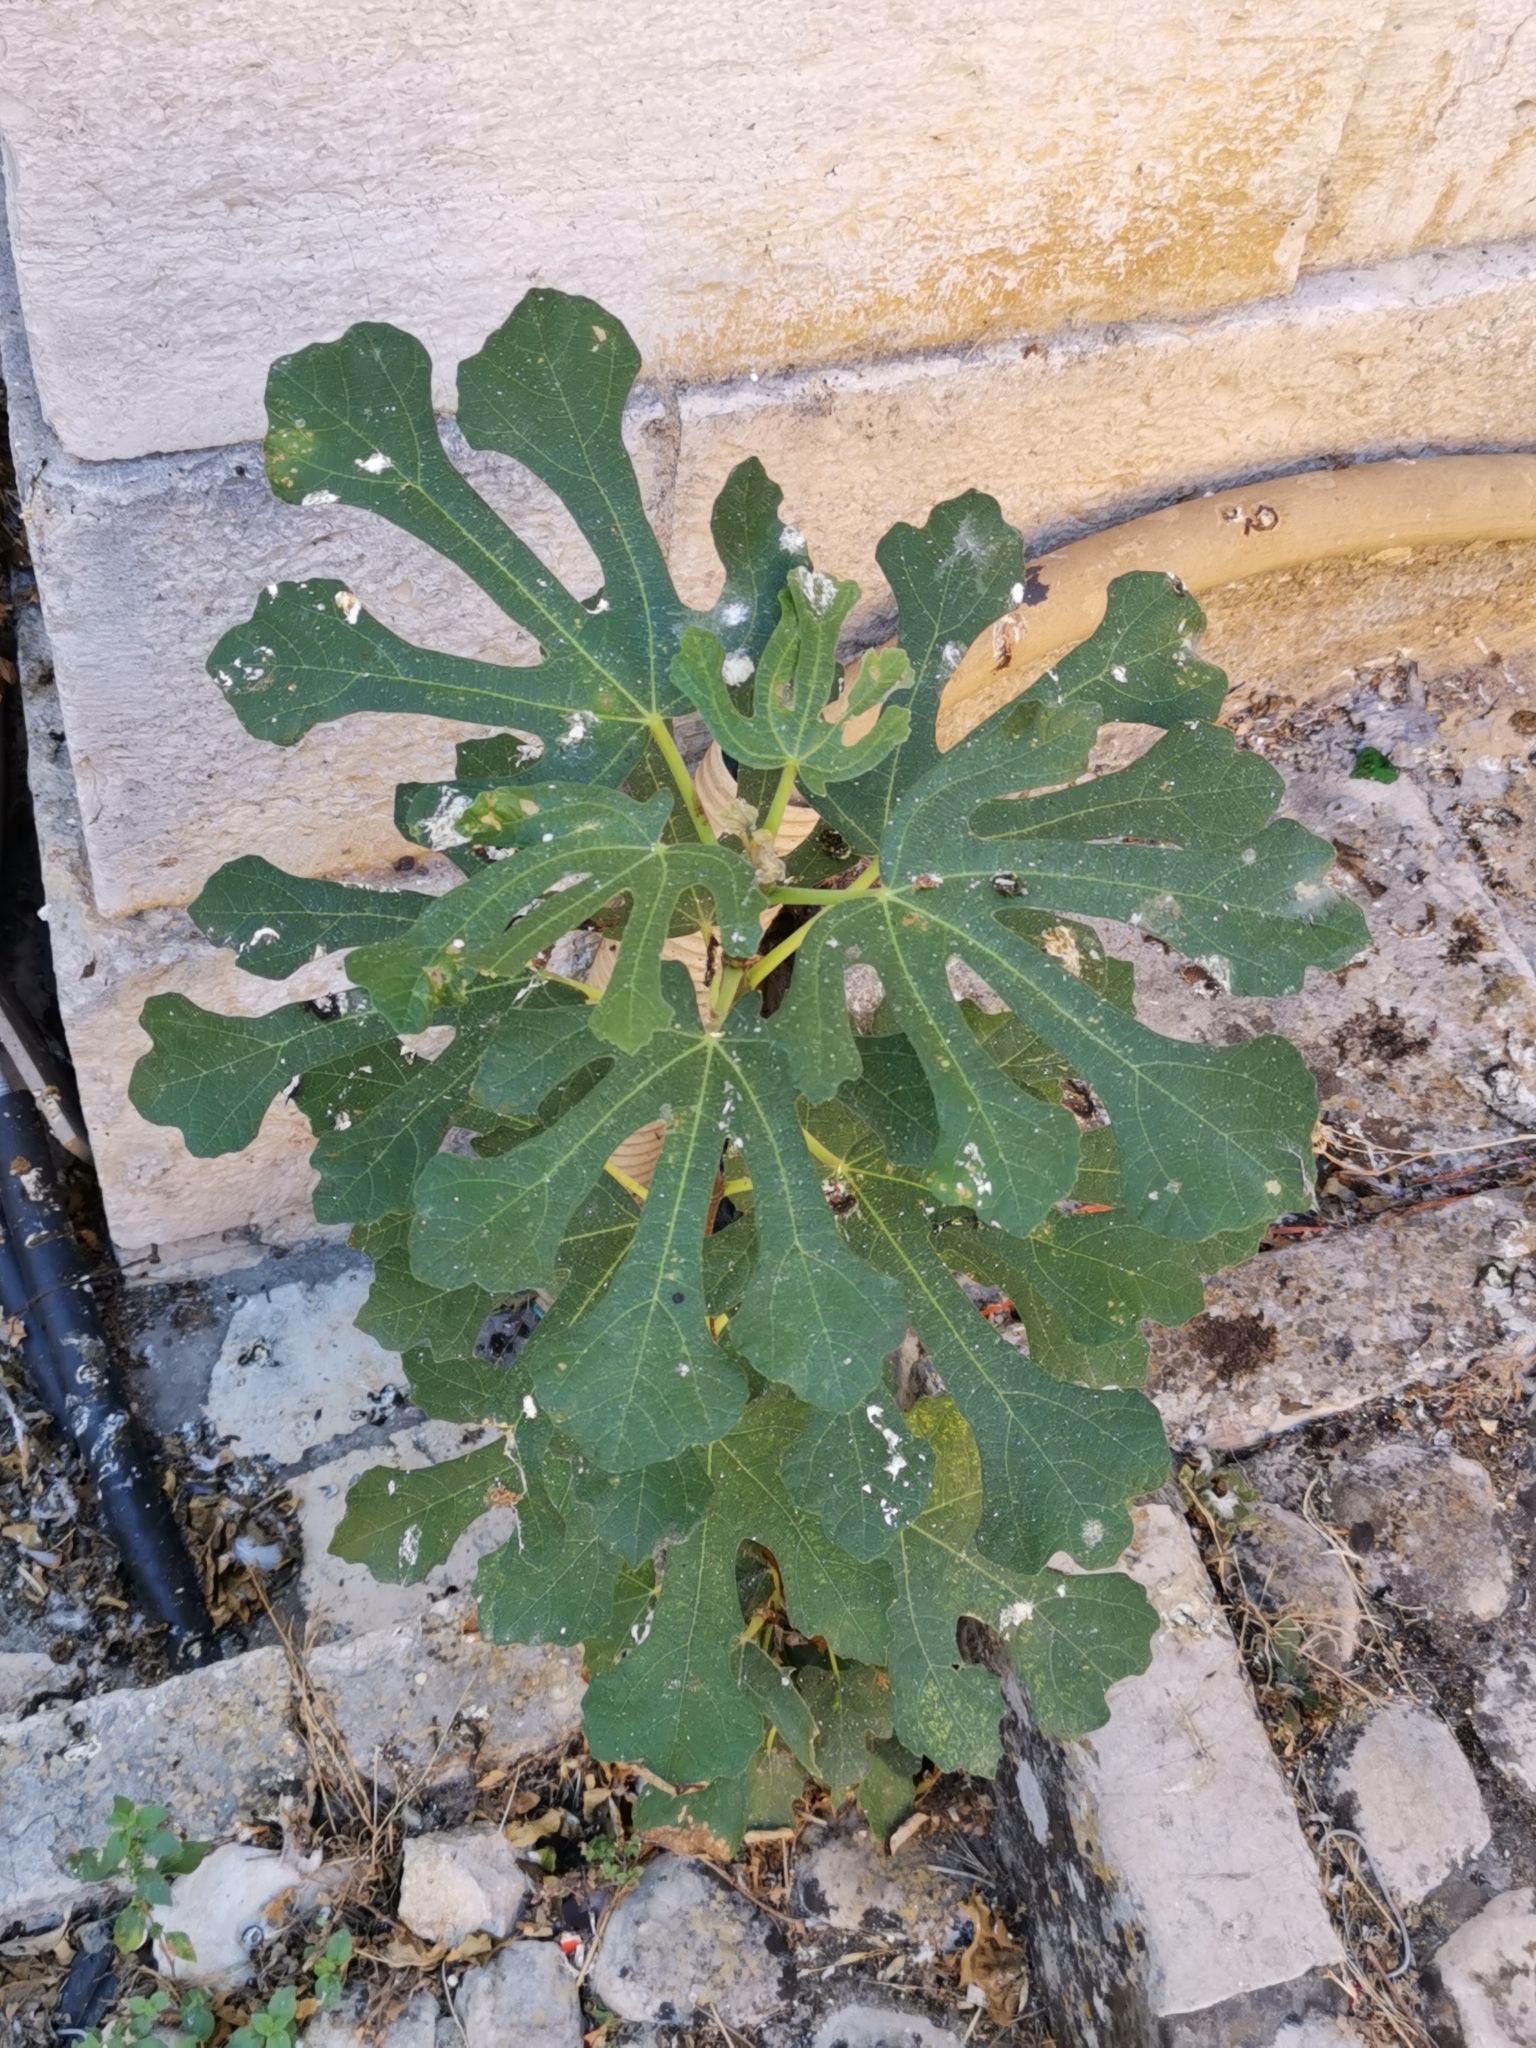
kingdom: Plantae
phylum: Tracheophyta
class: Magnoliopsida
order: Rosales
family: Moraceae
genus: Ficus
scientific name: Ficus carica
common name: Fig
